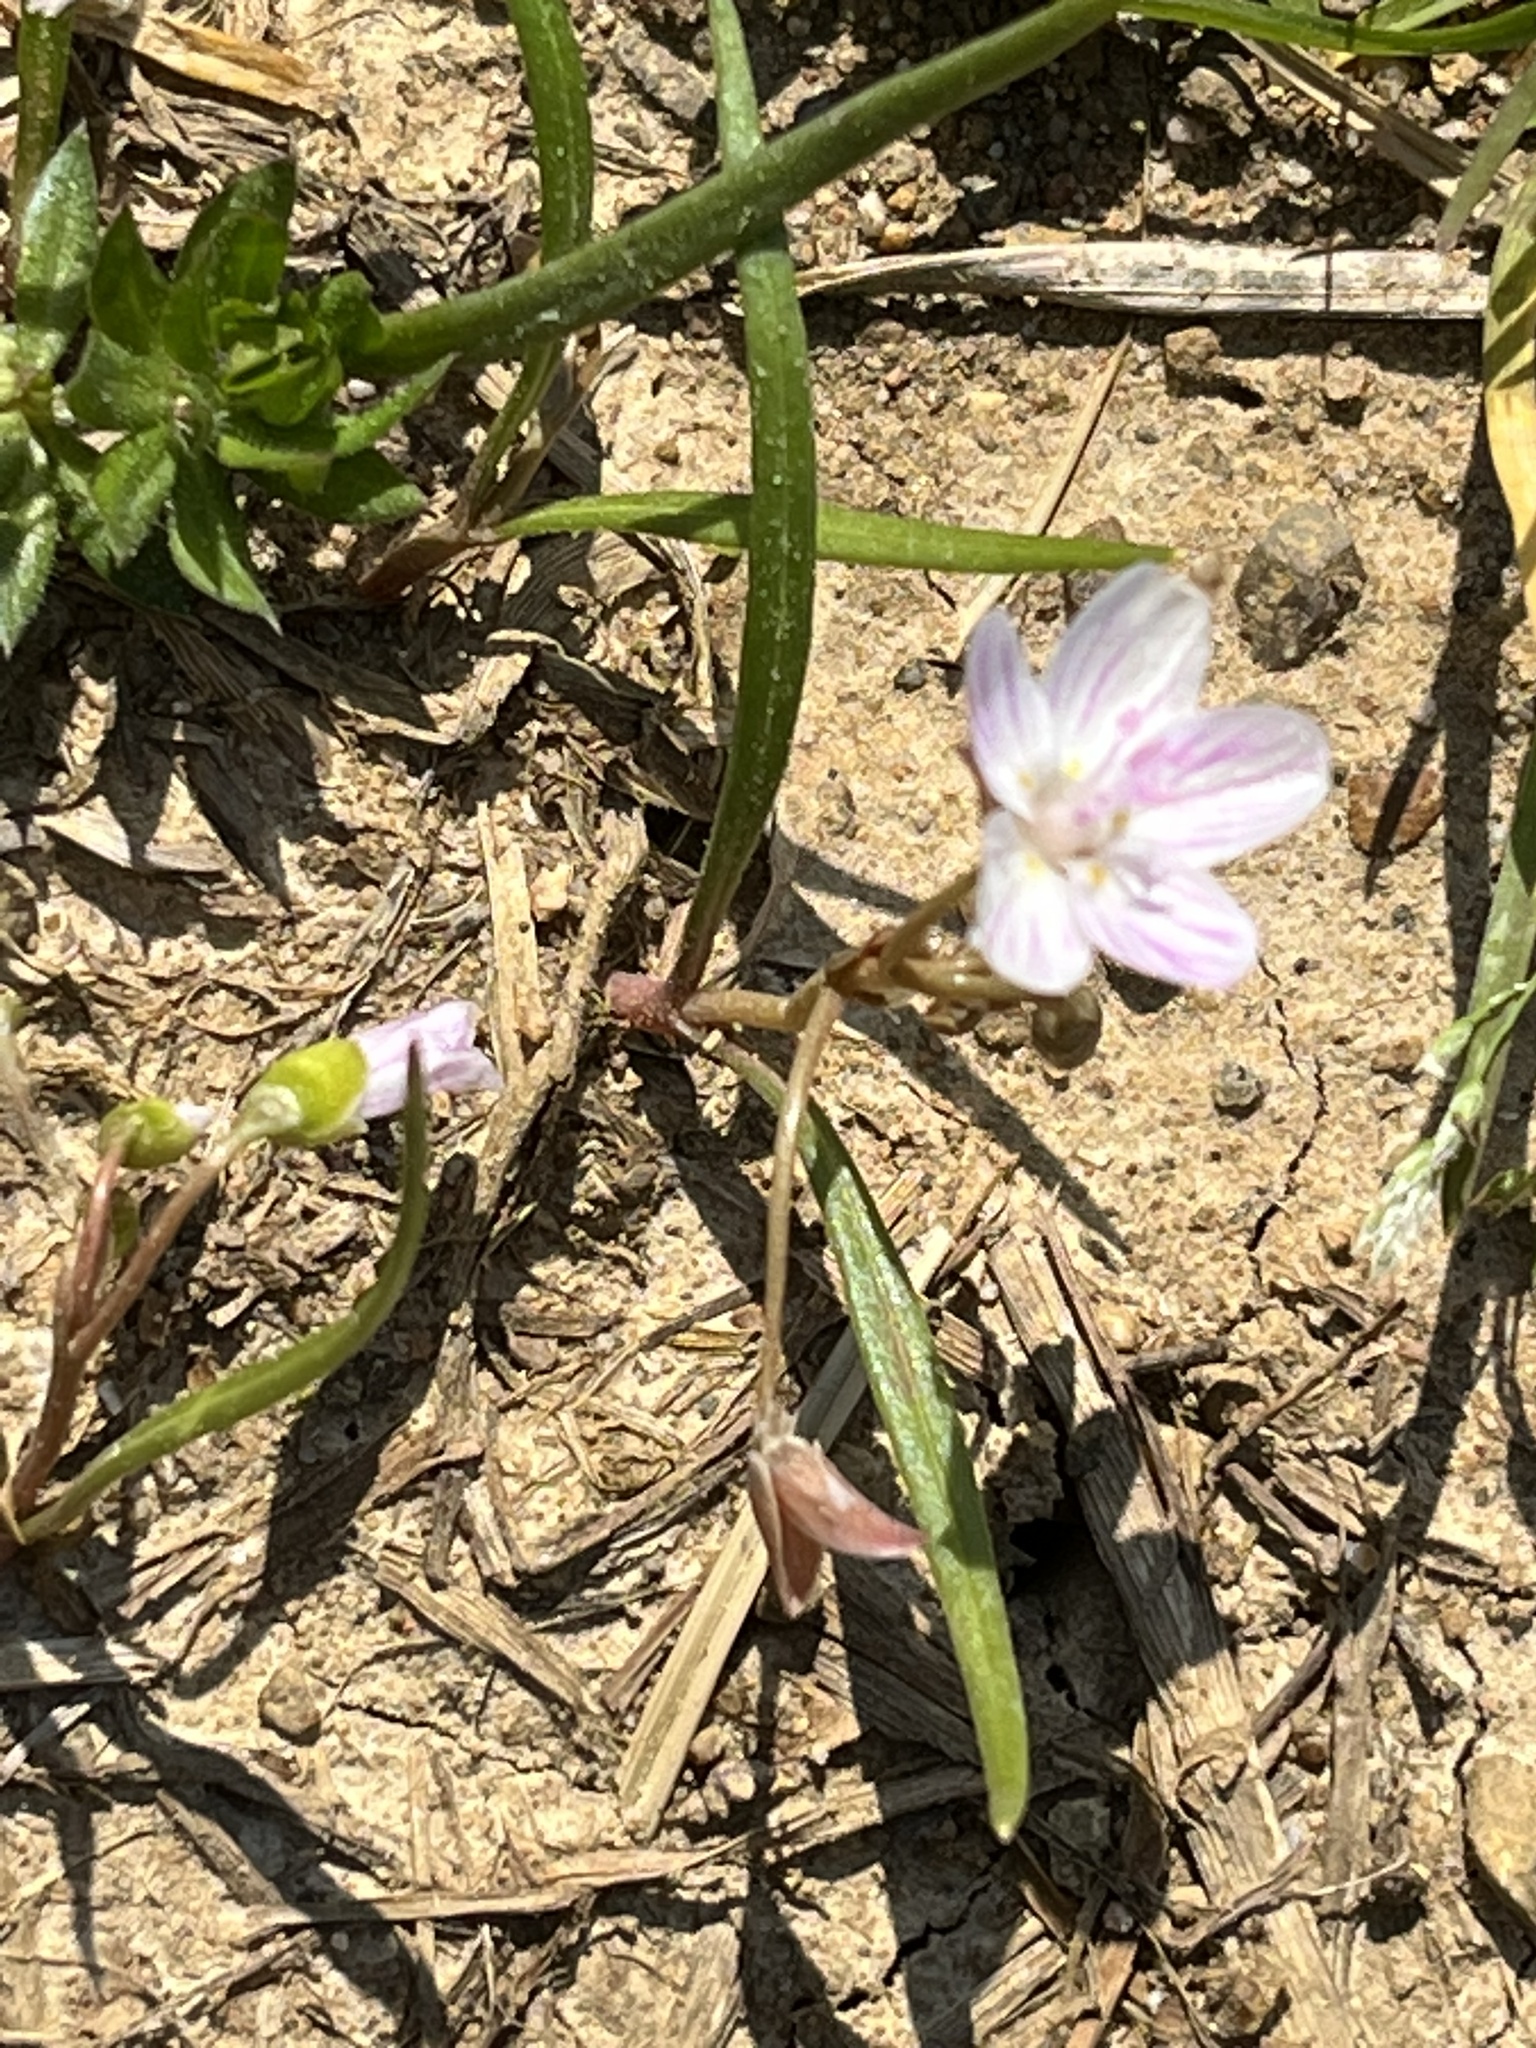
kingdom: Plantae
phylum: Tracheophyta
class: Magnoliopsida
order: Caryophyllales
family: Montiaceae
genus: Claytonia
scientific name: Claytonia virginica
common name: Virginia springbeauty
